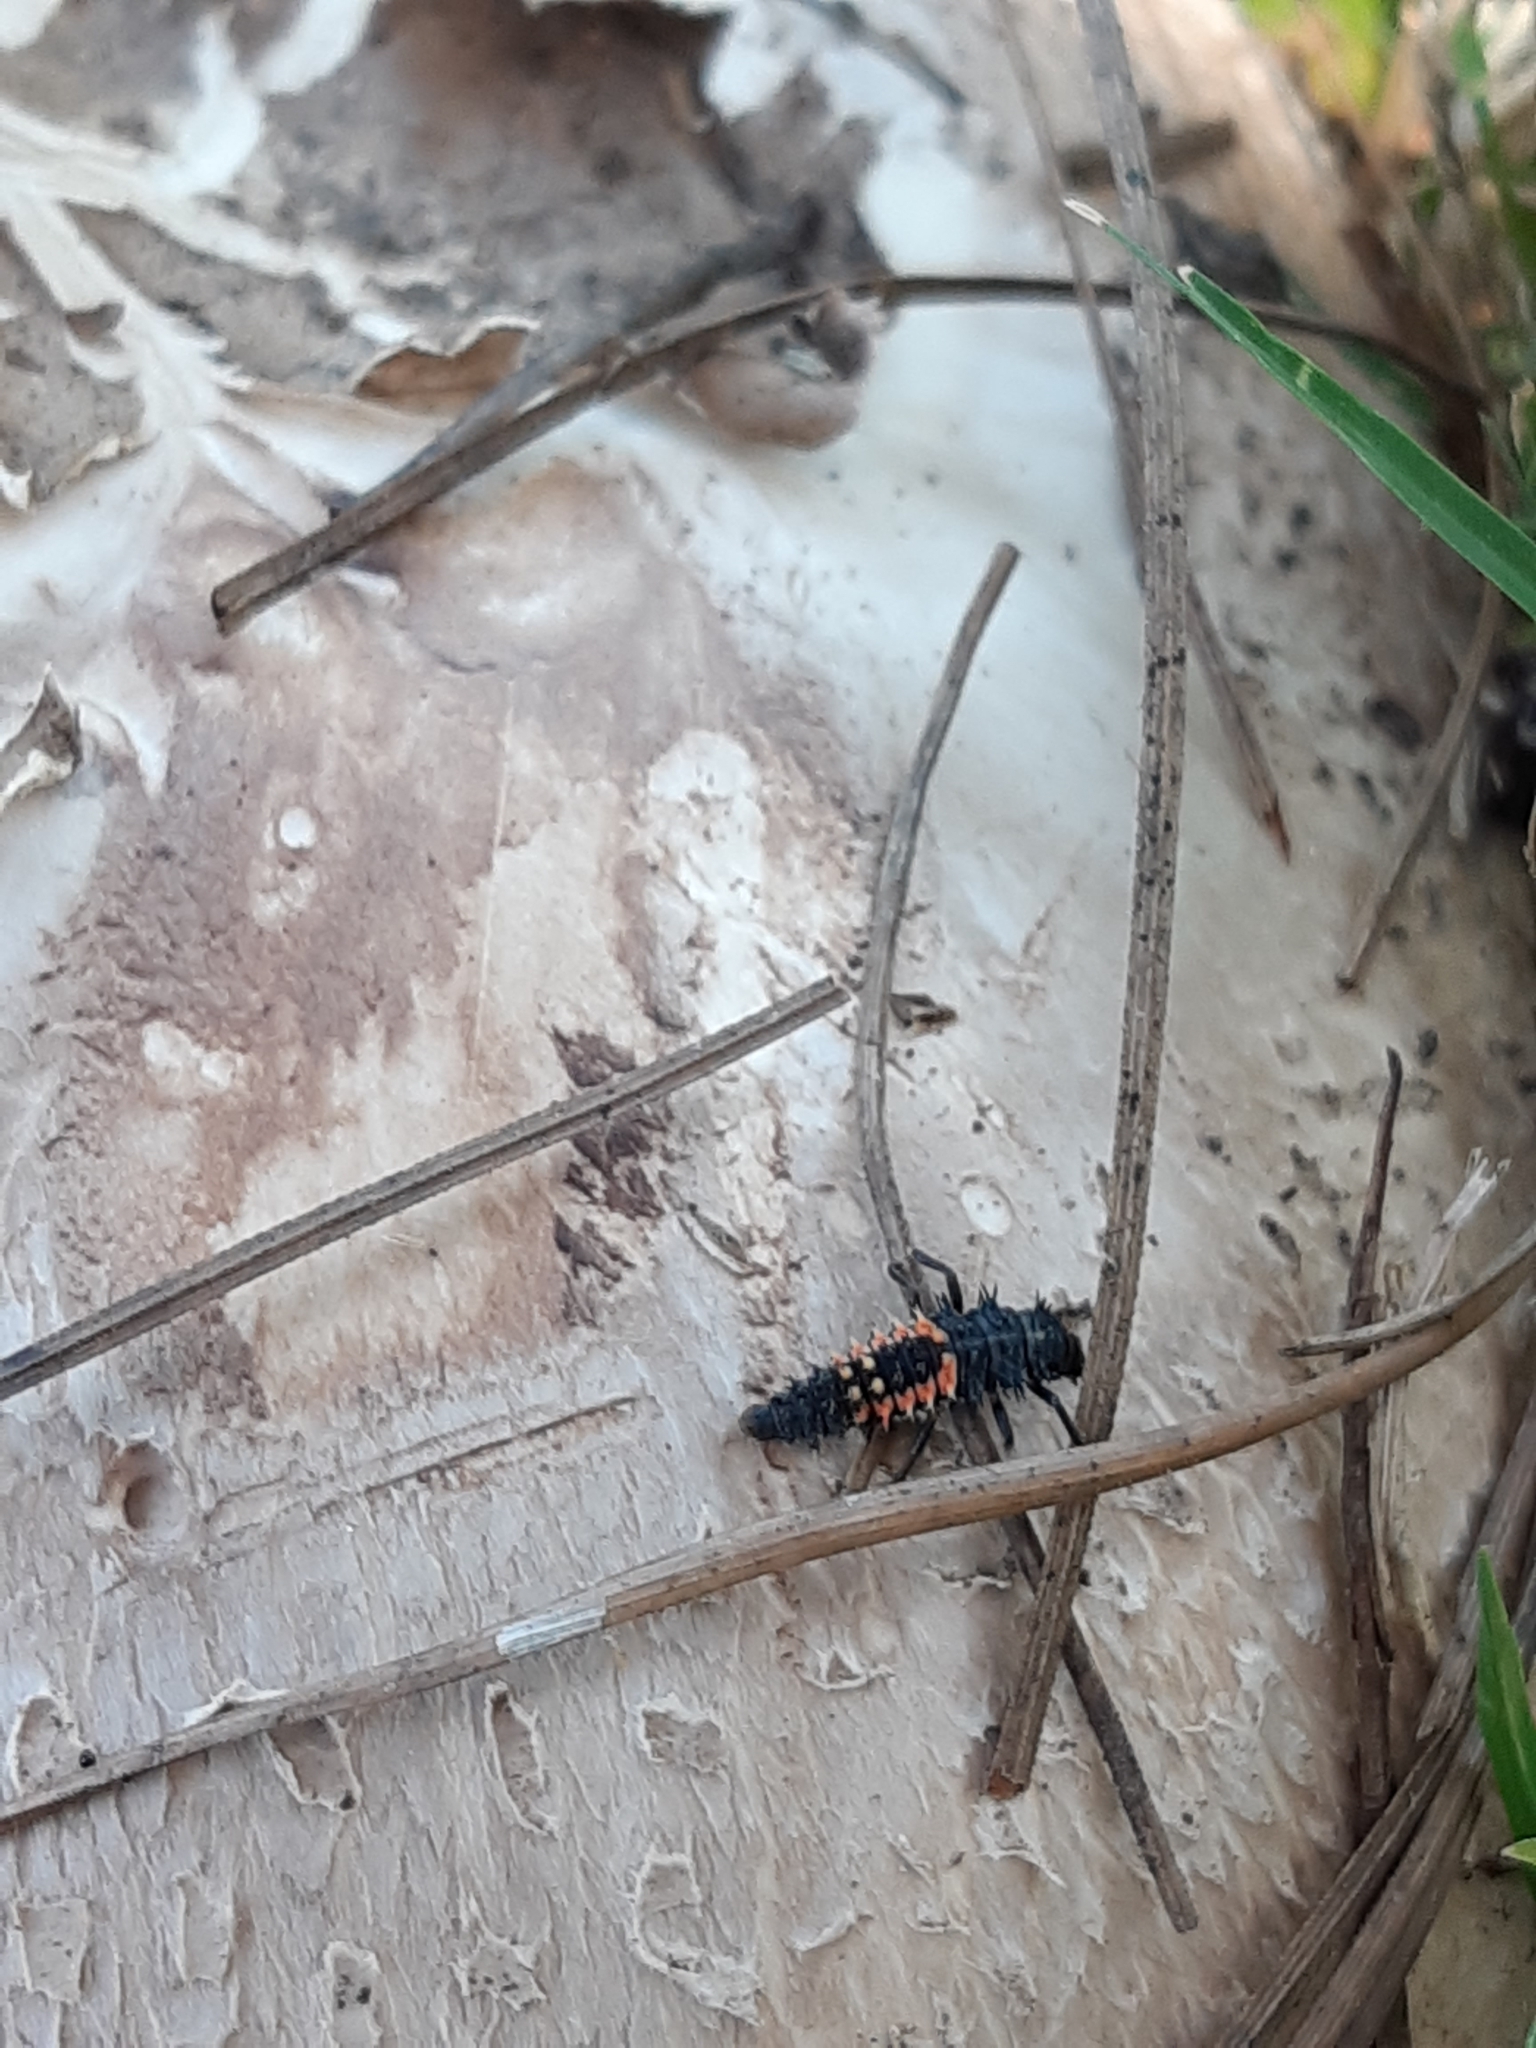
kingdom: Animalia
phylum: Arthropoda
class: Insecta
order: Coleoptera
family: Coccinellidae
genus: Harmonia
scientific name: Harmonia axyridis
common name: Harlequin ladybird
